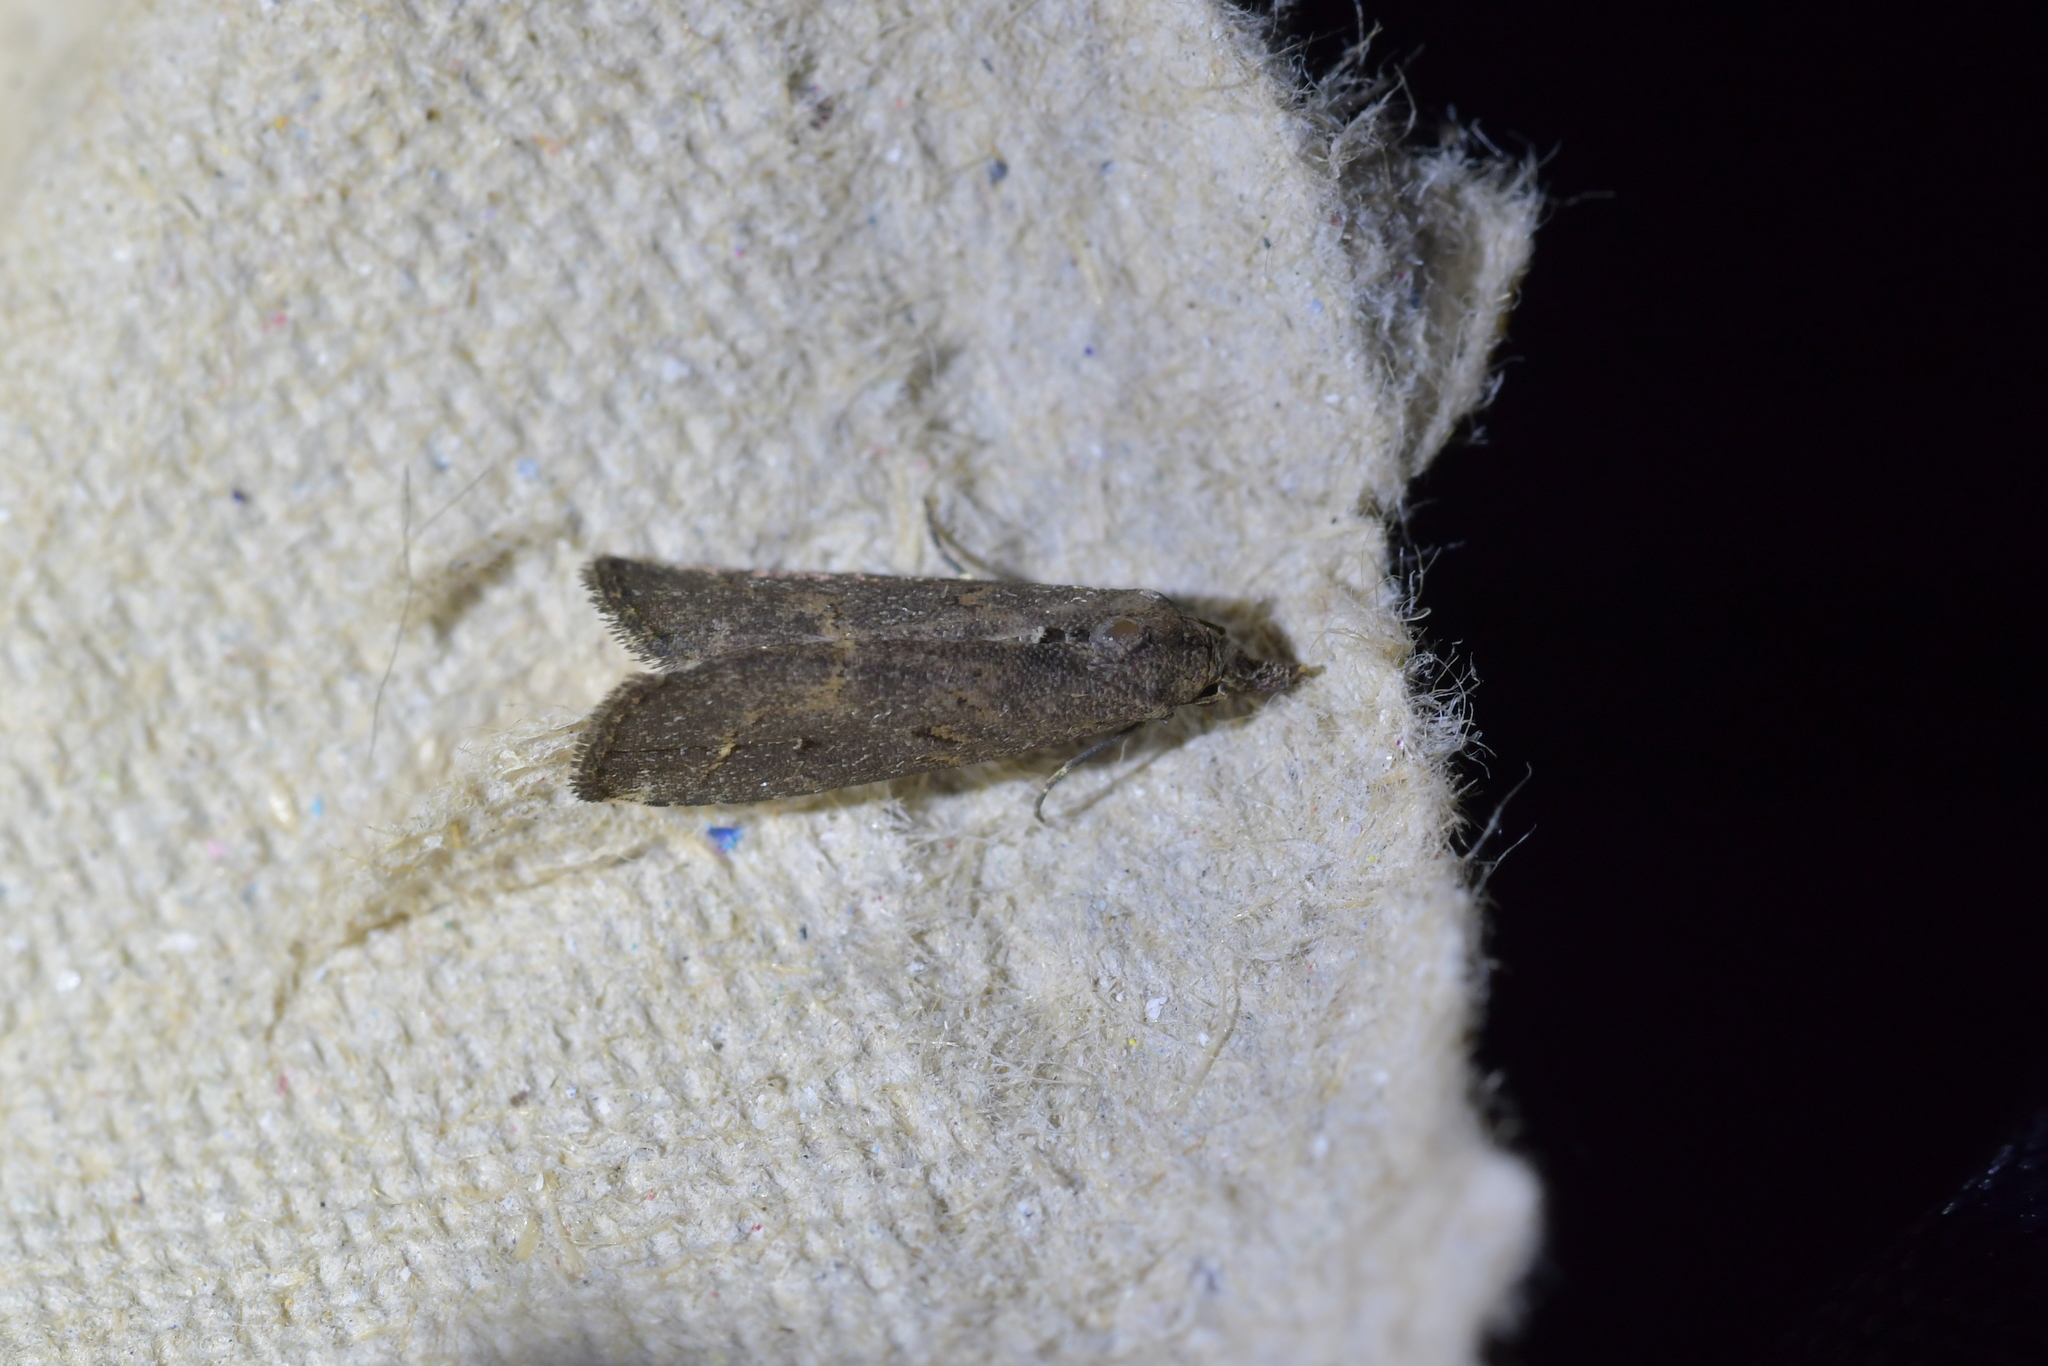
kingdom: Animalia
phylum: Arthropoda
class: Insecta
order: Lepidoptera
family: Erebidae
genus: Schrankia
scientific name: Schrankia costaestrigalis
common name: Pinion-streaked snout
